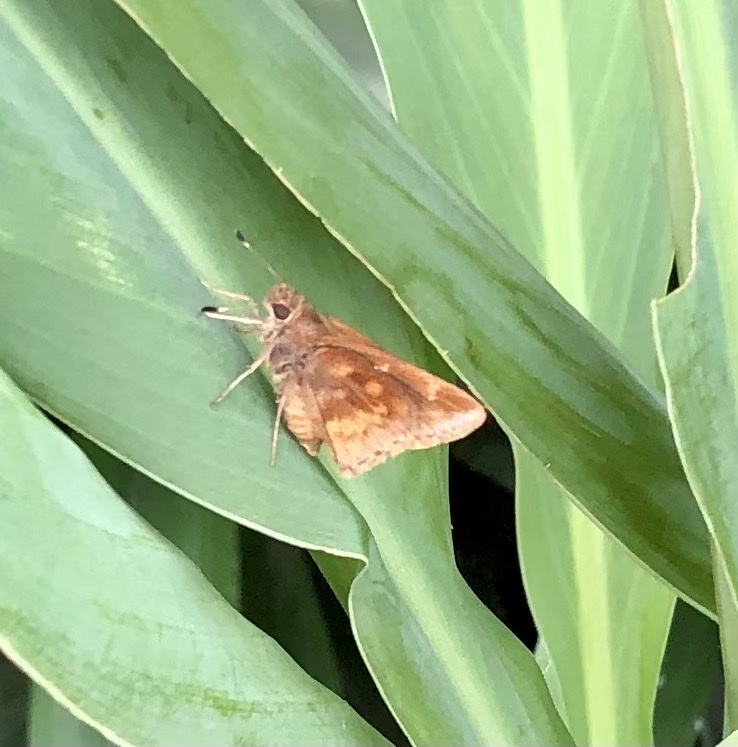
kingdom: Animalia
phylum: Arthropoda
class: Insecta
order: Lepidoptera
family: Hesperiidae
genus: Quinta
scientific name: Quinta cannae
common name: Canna skipper
